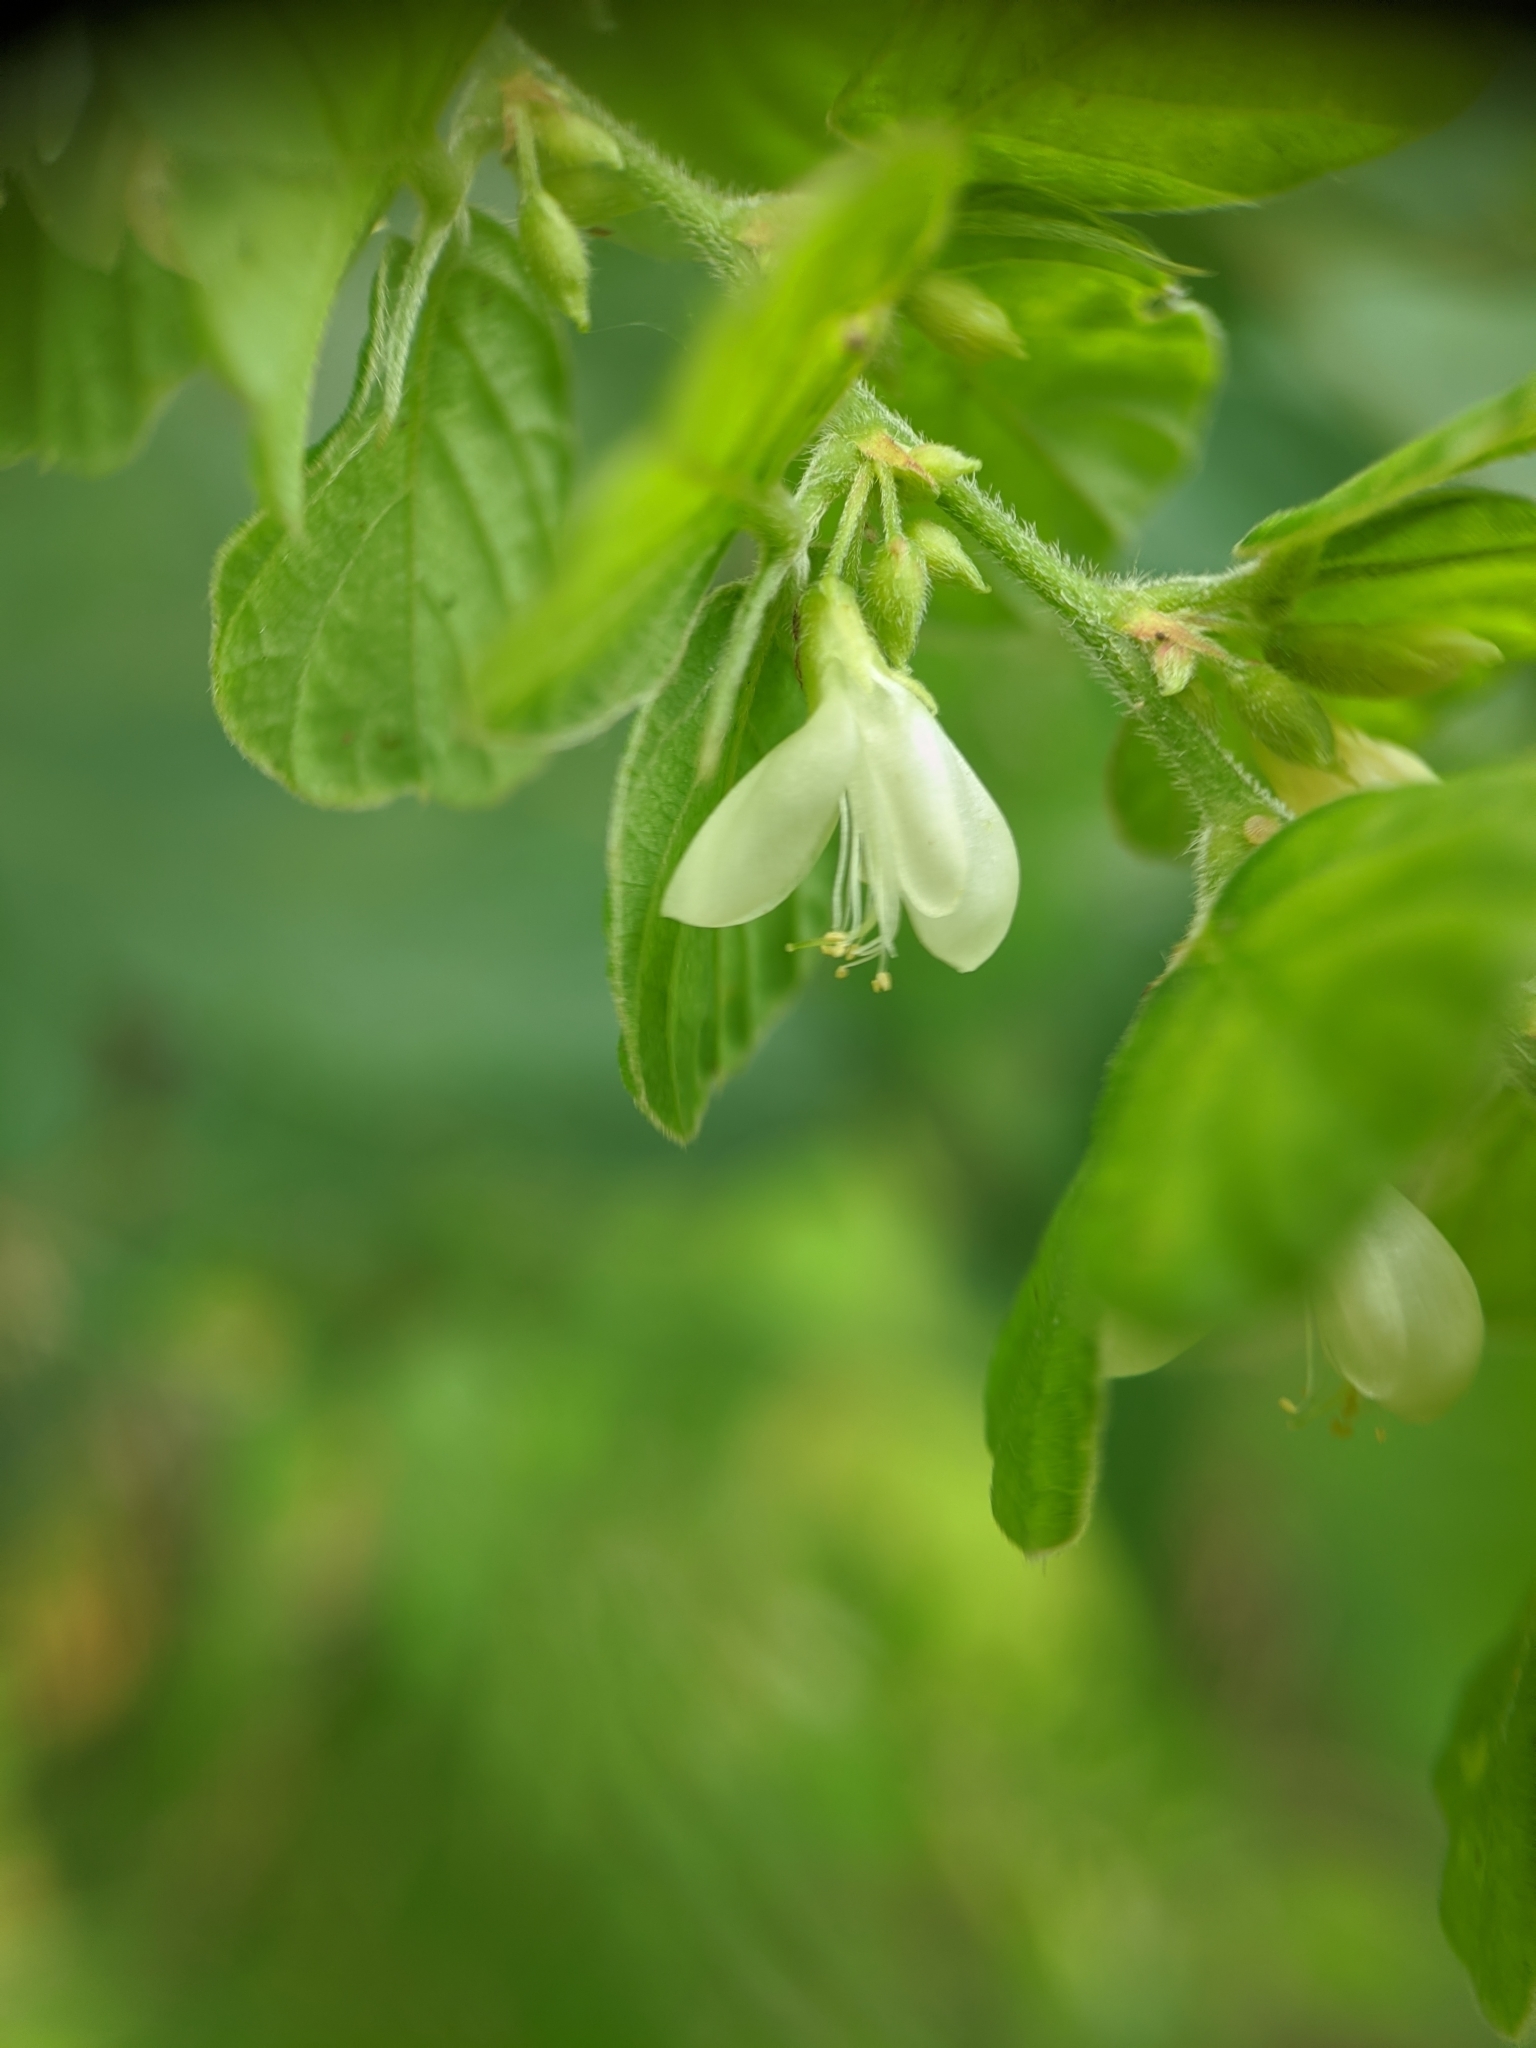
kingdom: Plantae
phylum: Tracheophyta
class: Magnoliopsida
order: Fabales
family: Fabaceae
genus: Phyllodium
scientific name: Phyllodium pulchellum
